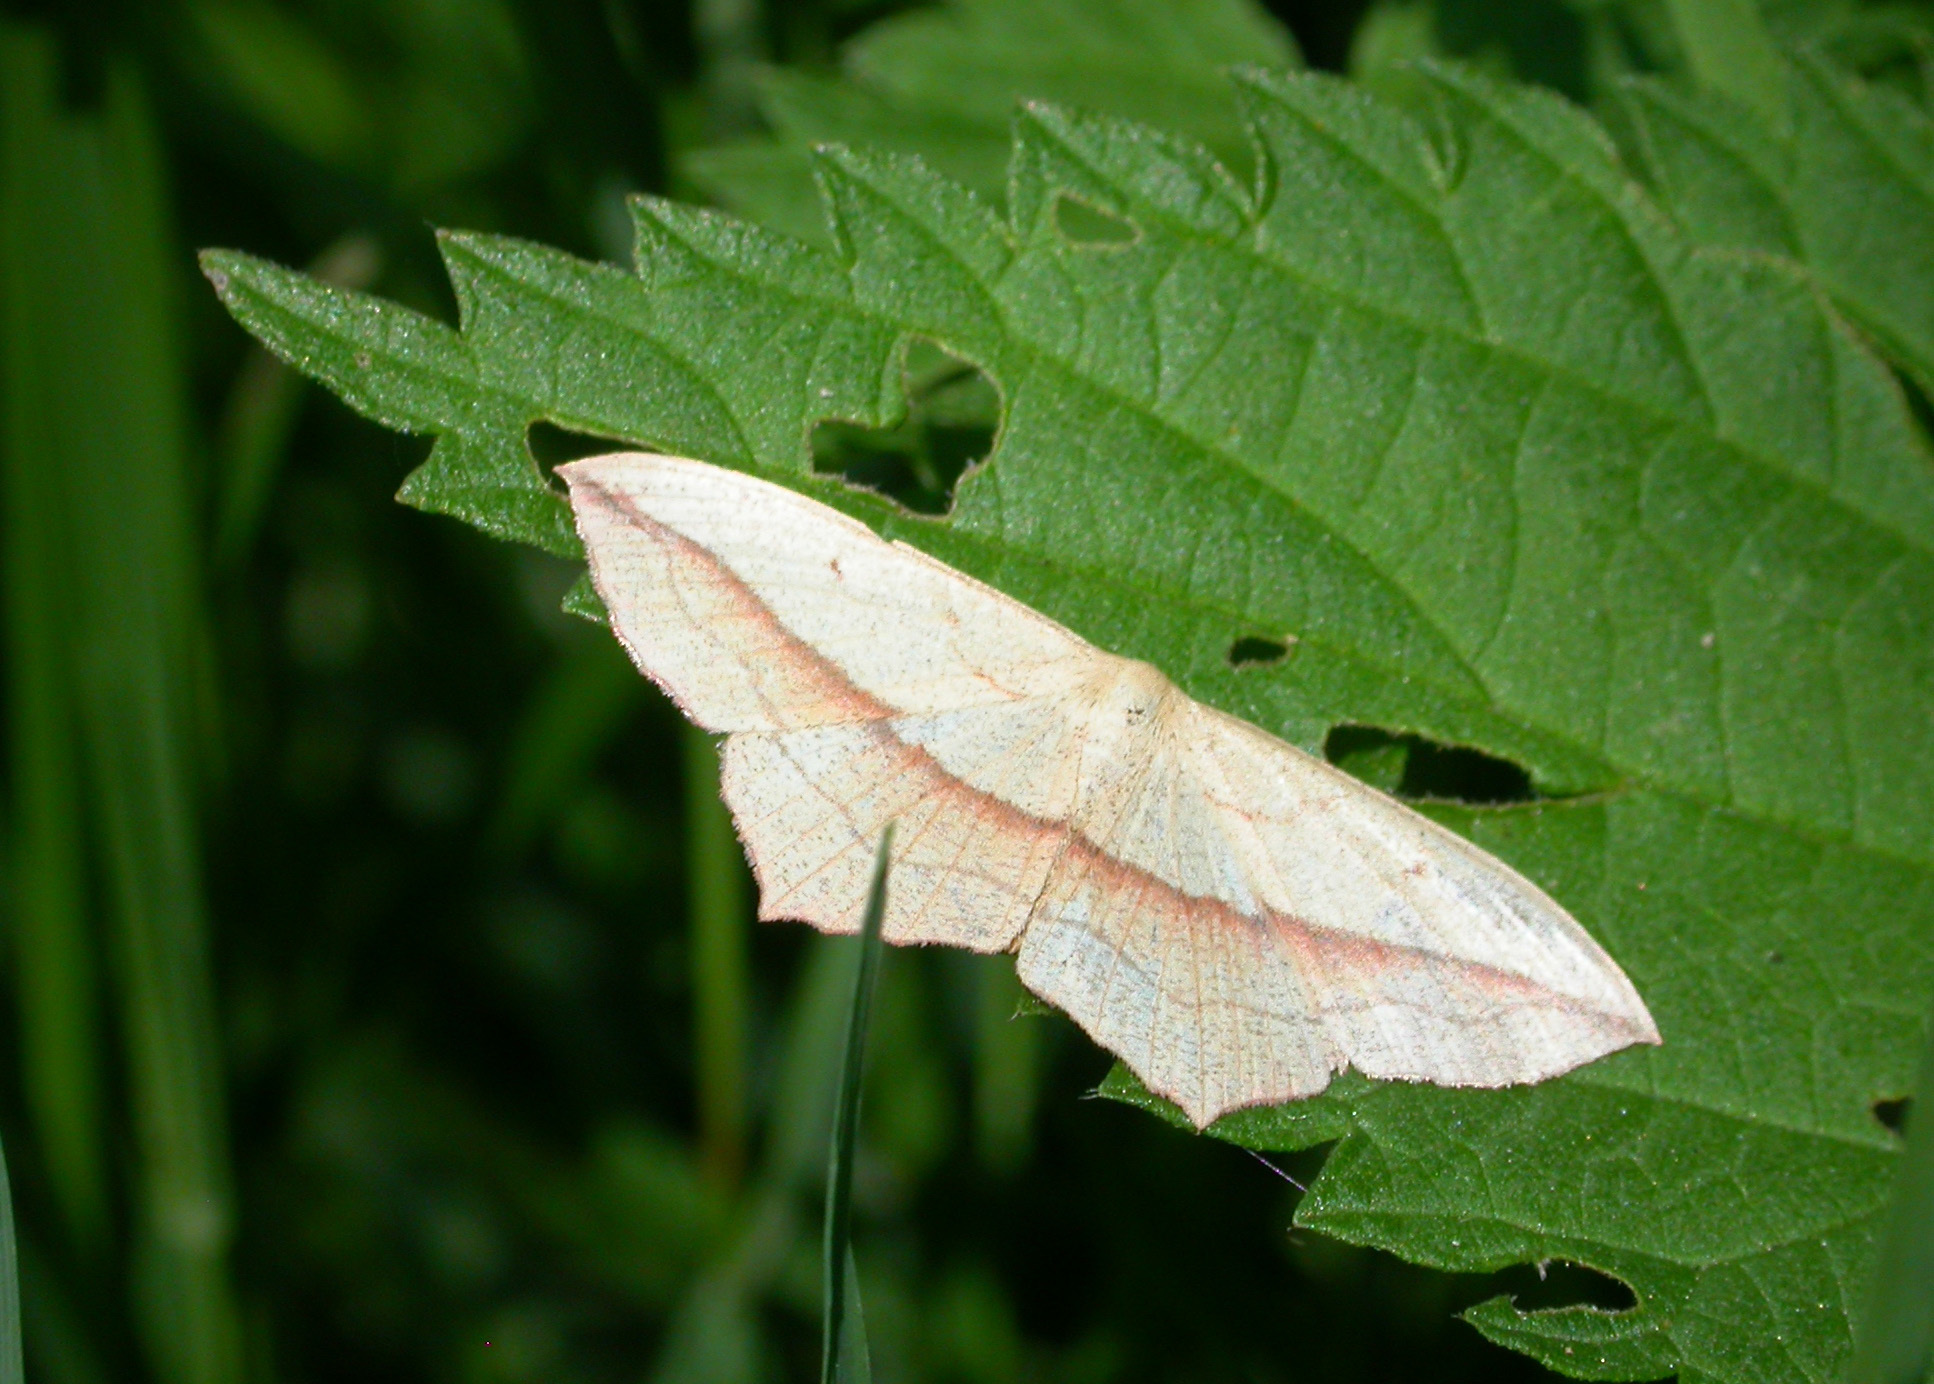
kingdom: Animalia
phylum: Arthropoda
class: Insecta
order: Lepidoptera
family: Geometridae
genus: Timandra
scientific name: Timandra comae
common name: Blood-vein
